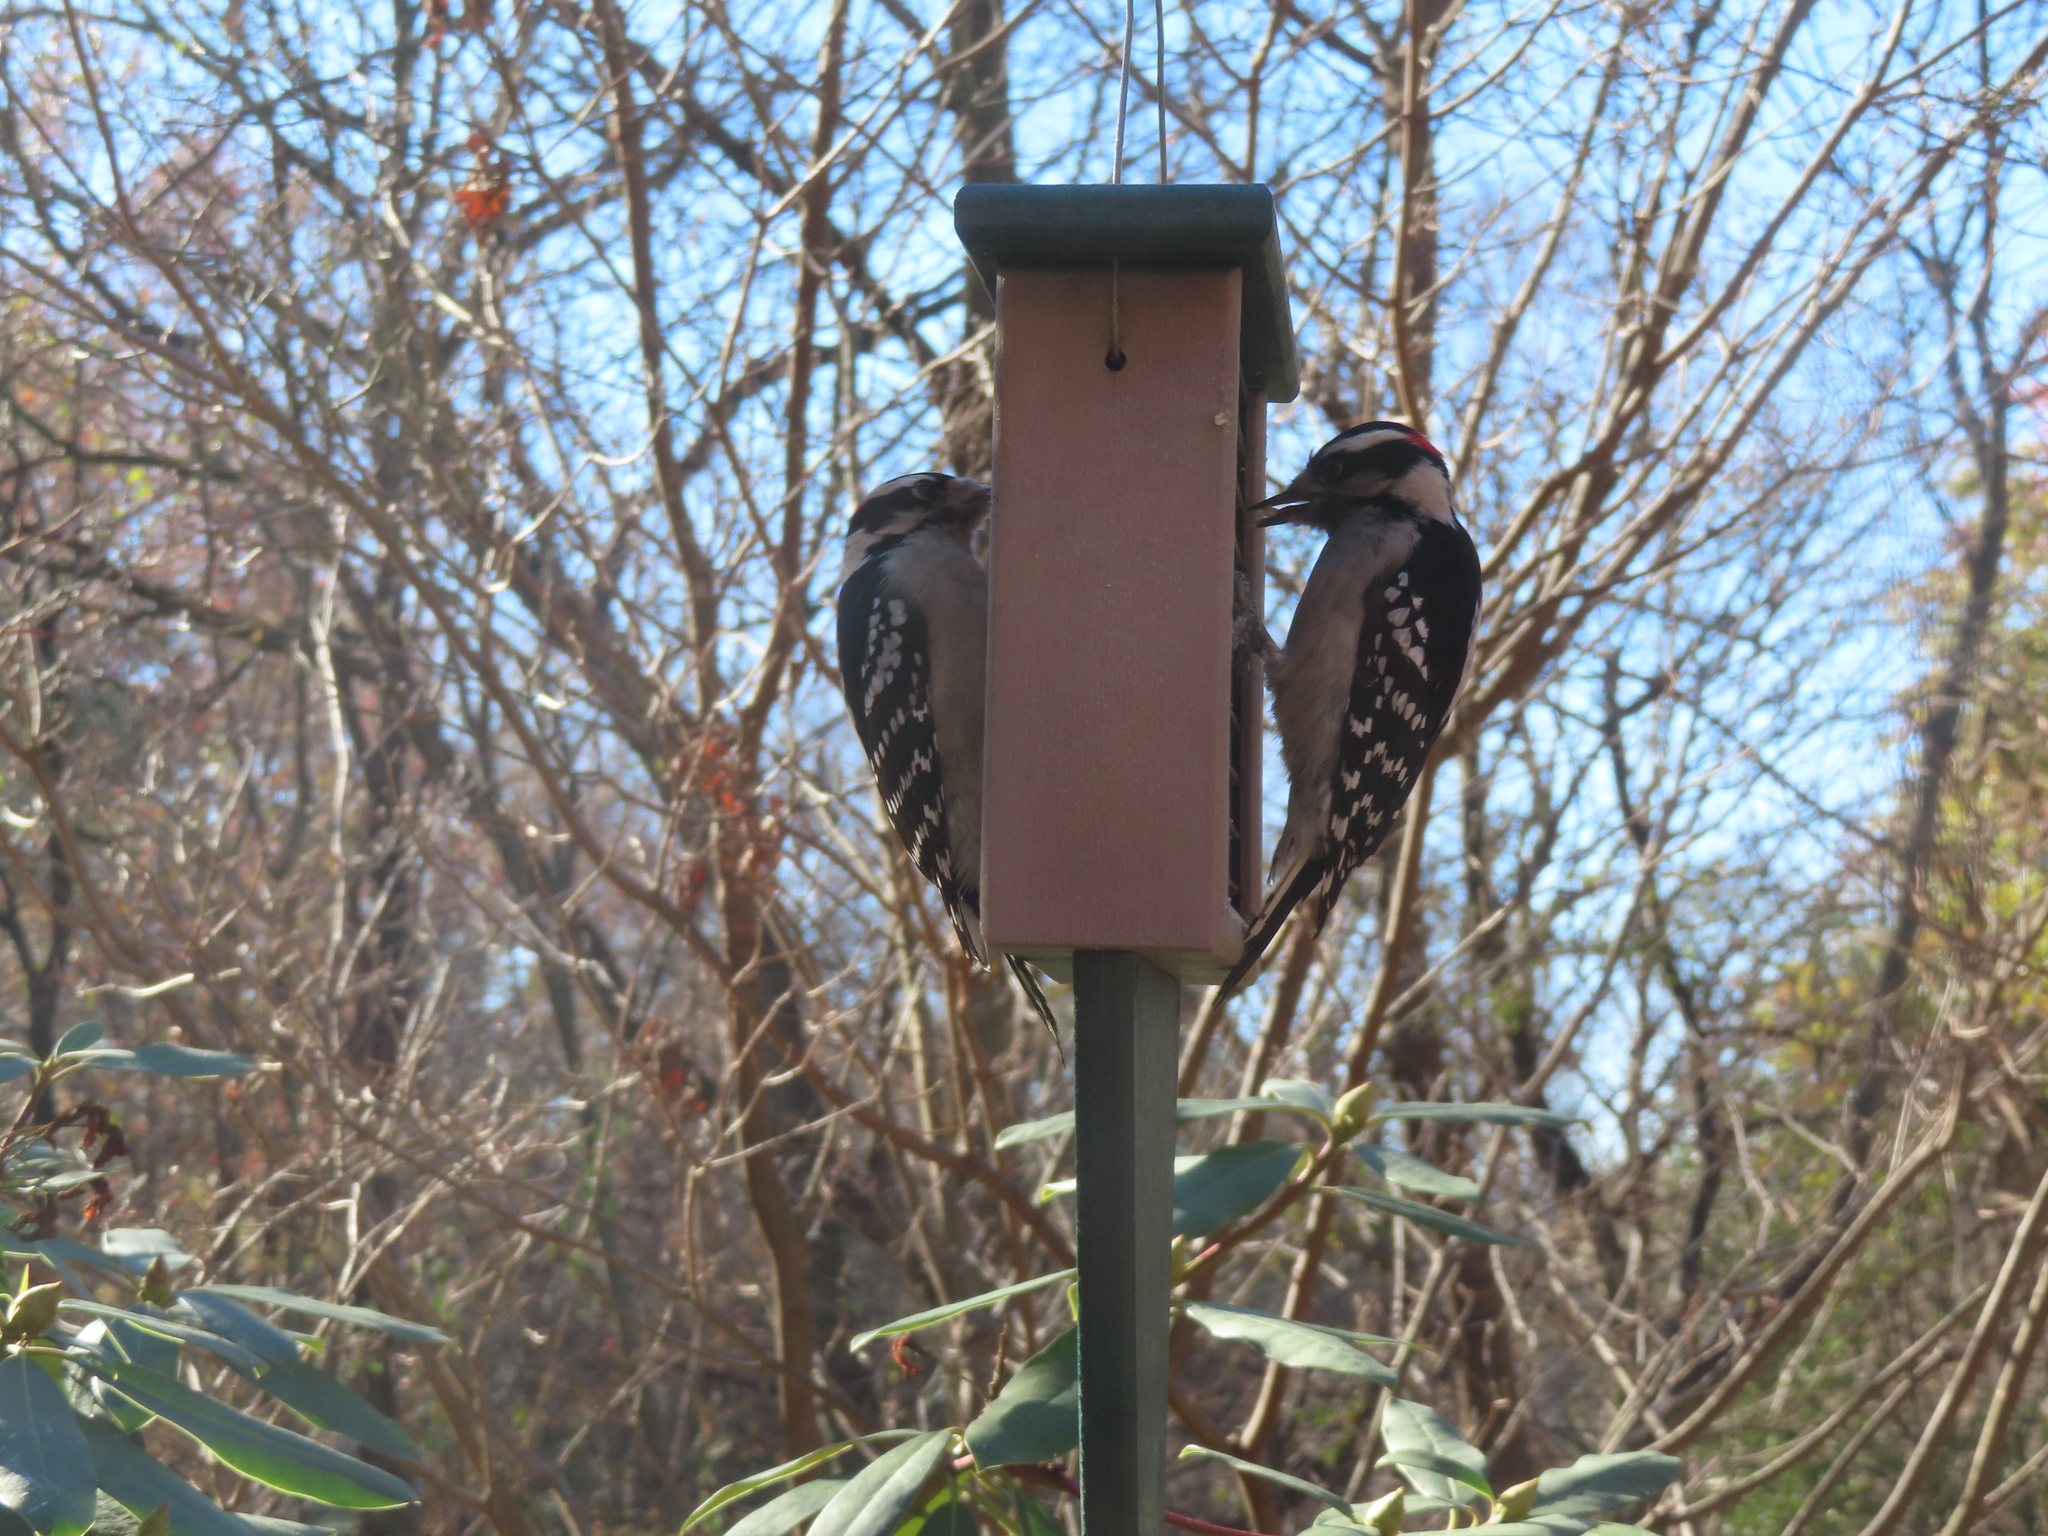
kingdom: Animalia
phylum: Chordata
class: Aves
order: Piciformes
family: Picidae
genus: Dryobates
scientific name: Dryobates pubescens
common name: Downy woodpecker
